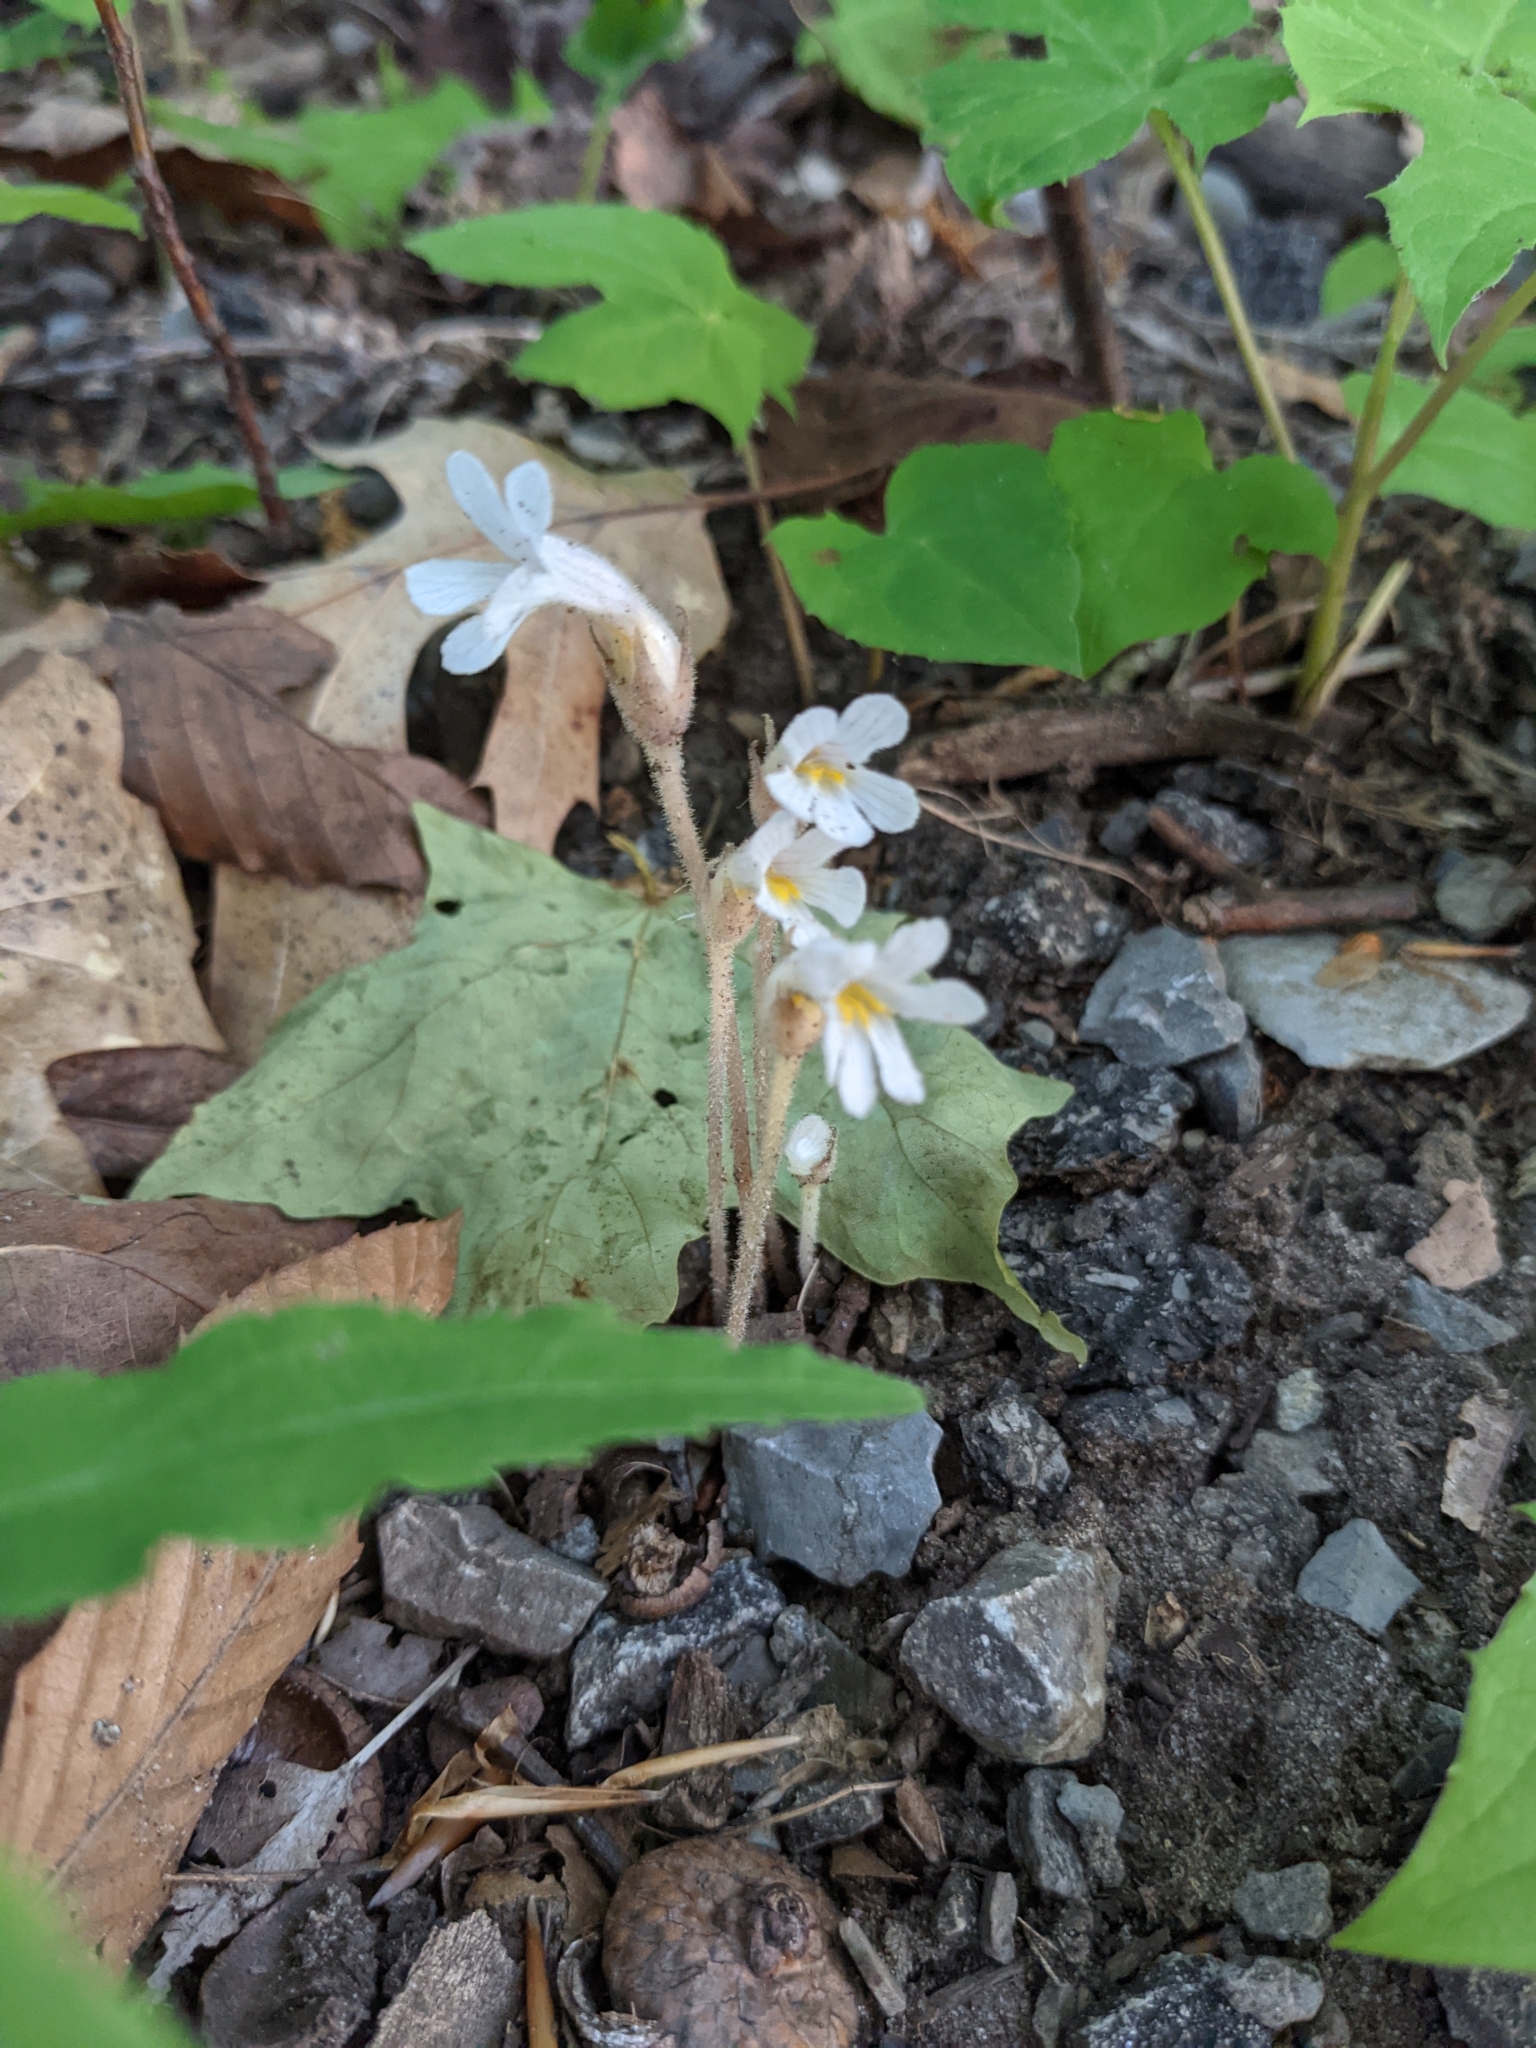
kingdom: Plantae
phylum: Tracheophyta
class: Magnoliopsida
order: Lamiales
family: Orobanchaceae
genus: Aphyllon
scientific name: Aphyllon uniflorum
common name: One-flowered broomrape
